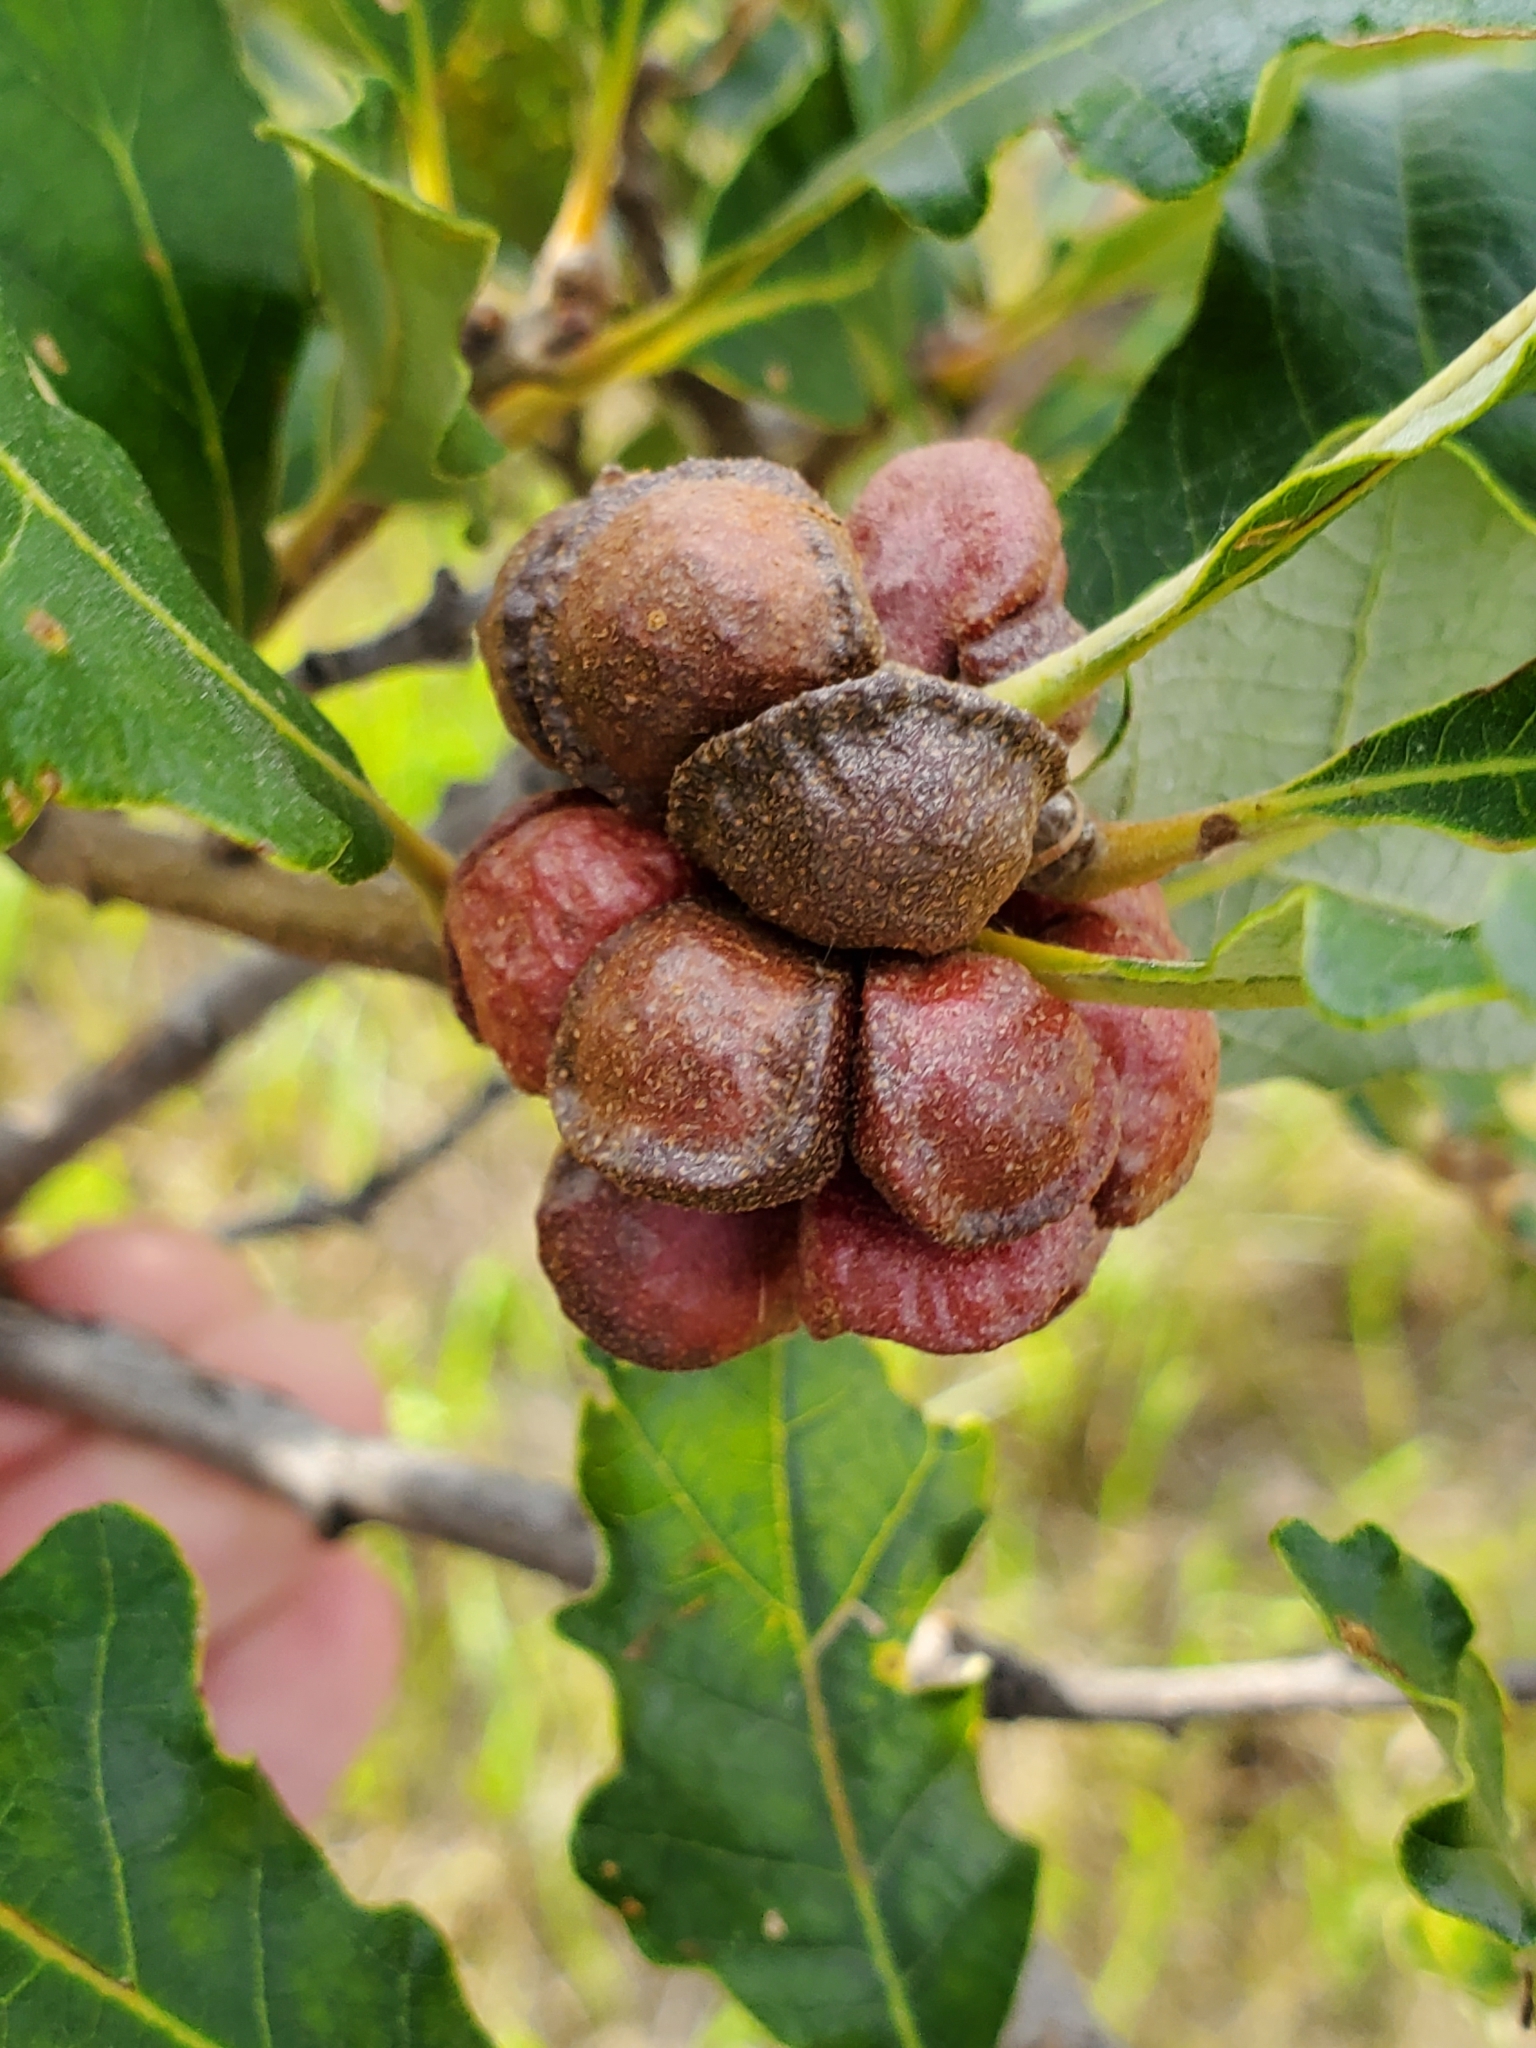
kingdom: Animalia
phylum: Arthropoda
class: Insecta
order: Hymenoptera
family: Cynipidae
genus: Andricus
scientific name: Andricus
